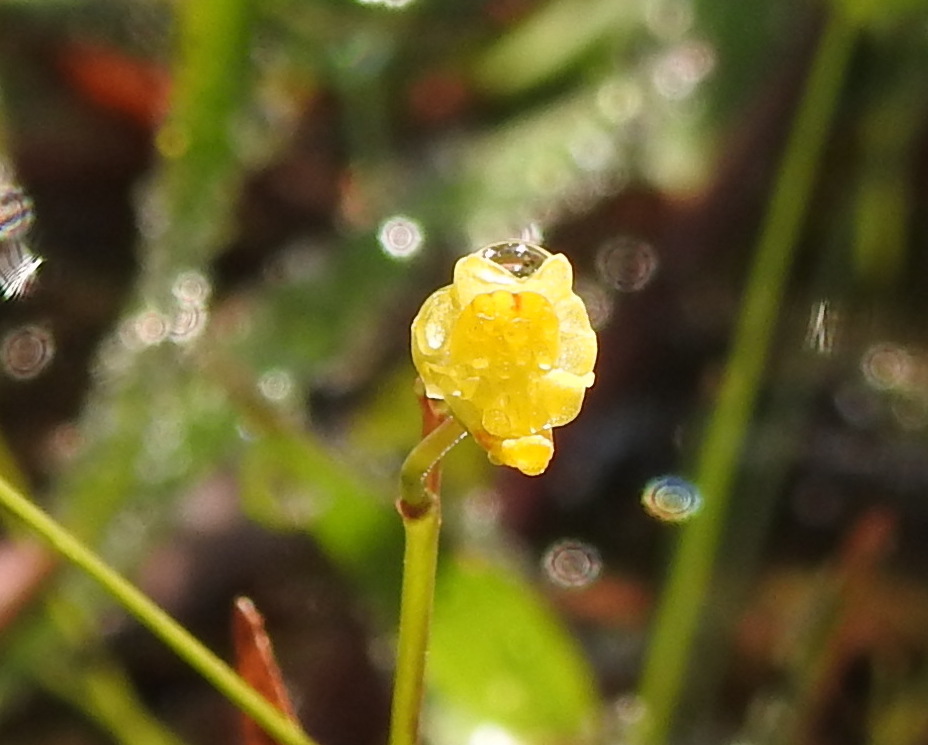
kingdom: Plantae
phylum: Tracheophyta
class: Magnoliopsida
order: Lamiales
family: Lentibulariaceae
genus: Utricularia
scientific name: Utricularia gibba
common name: Humped bladderwort
